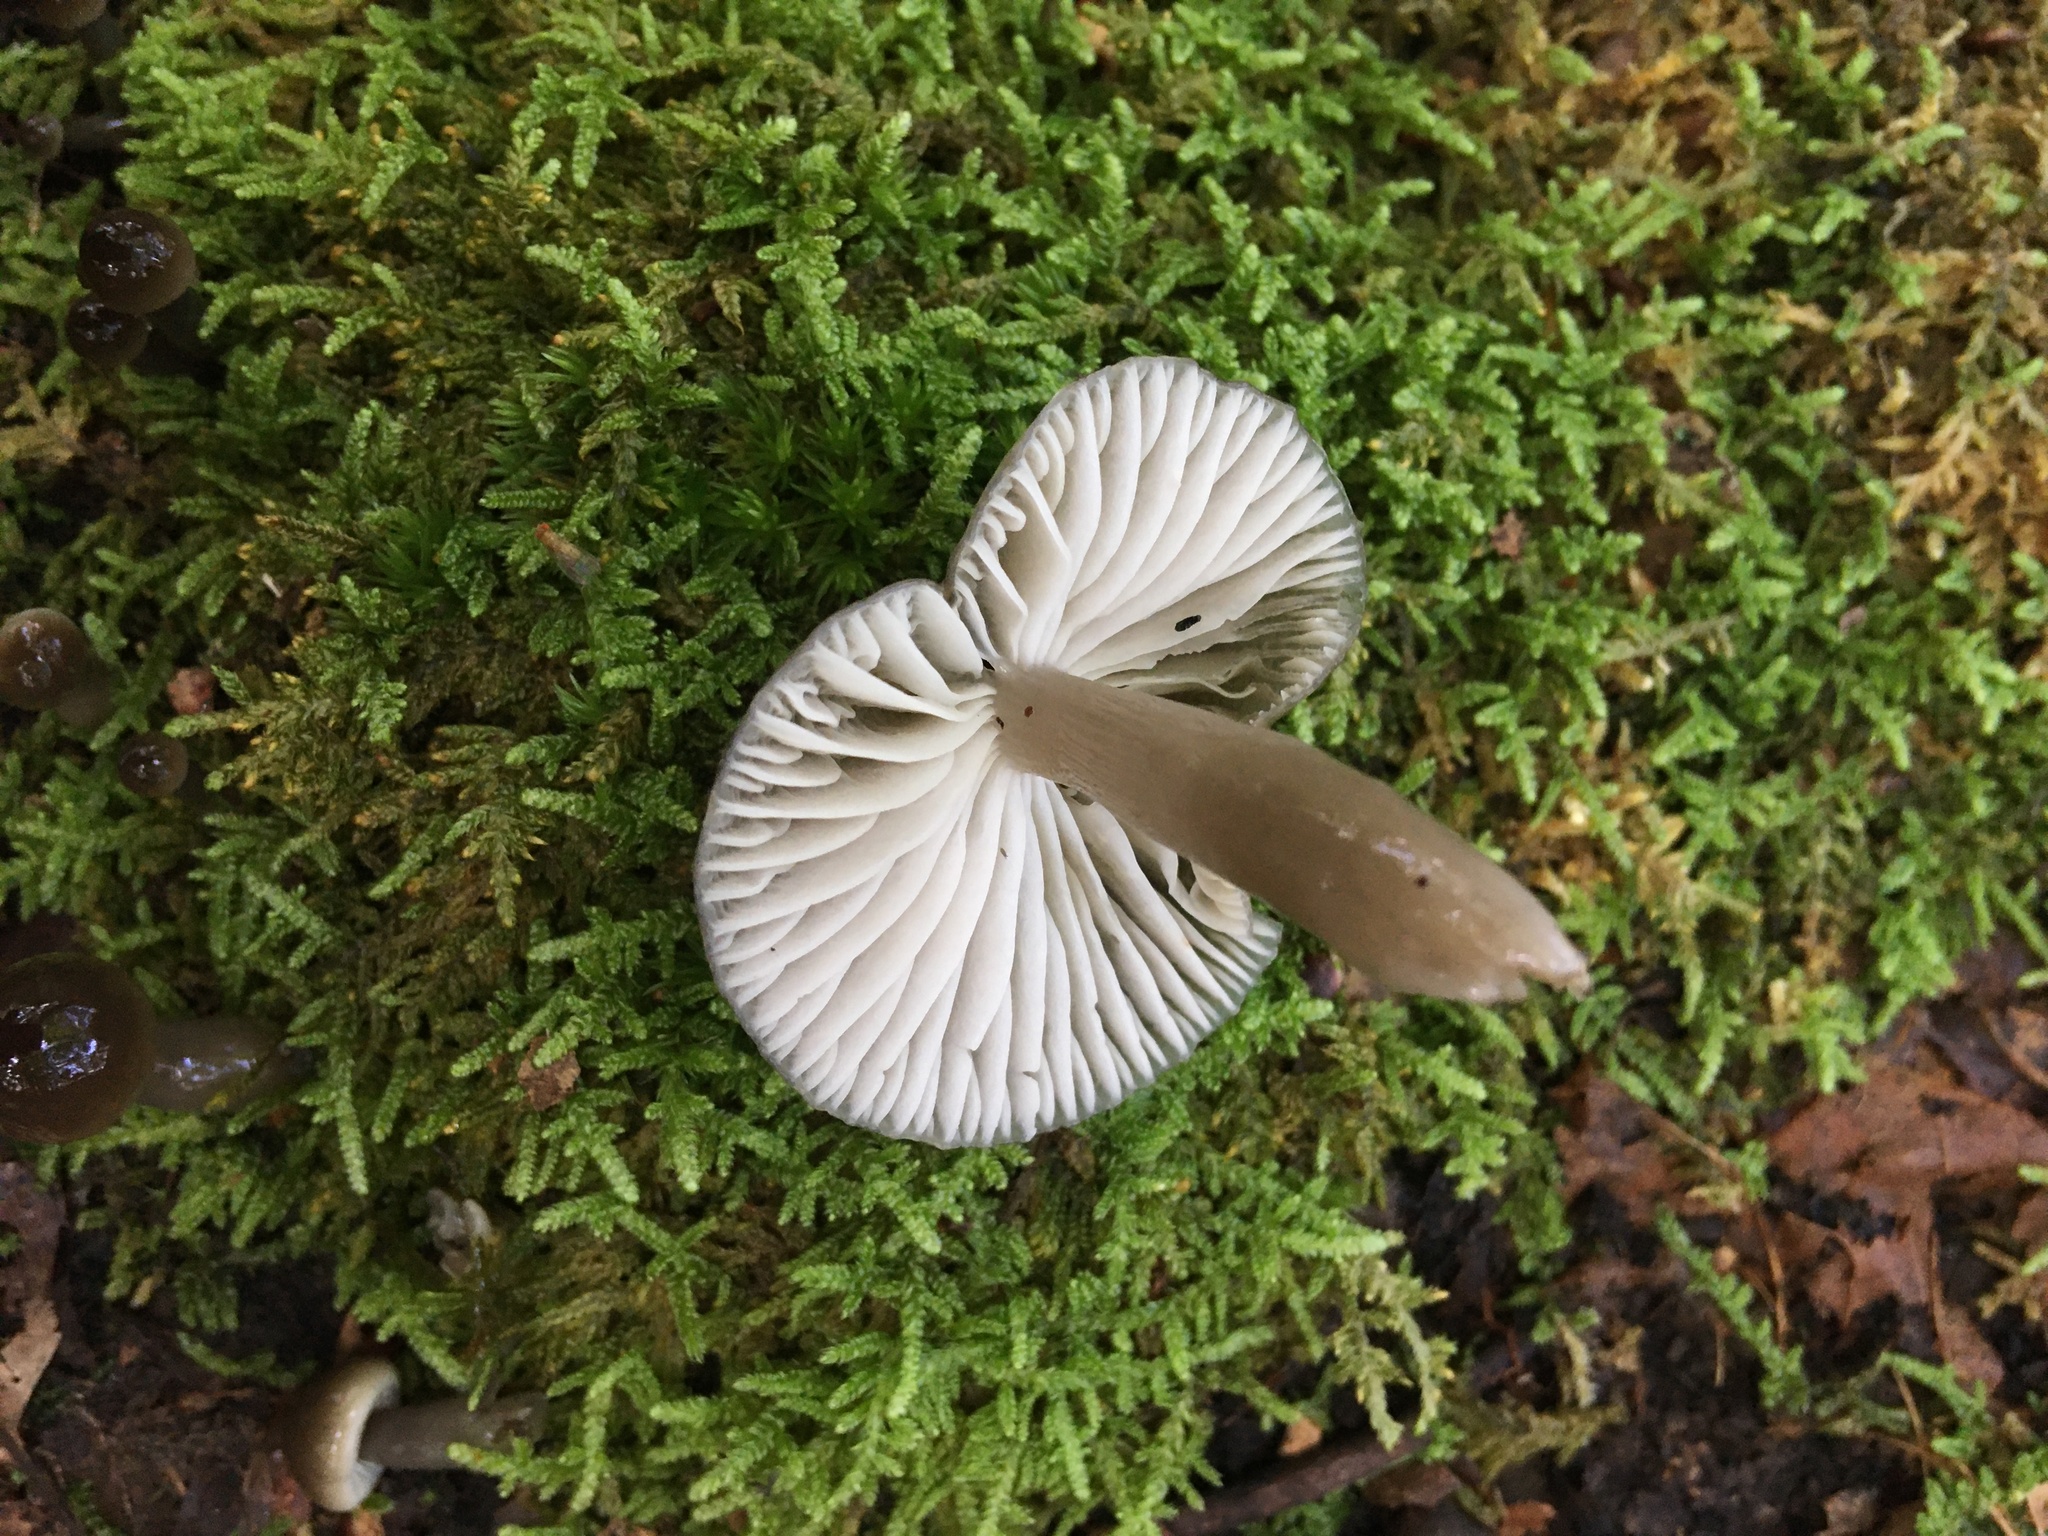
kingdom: Fungi
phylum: Basidiomycota
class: Agaricomycetes
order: Agaricales
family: Hygrophoraceae
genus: Gliophorus
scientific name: Gliophorus irrigatus
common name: Slimy waxcap
